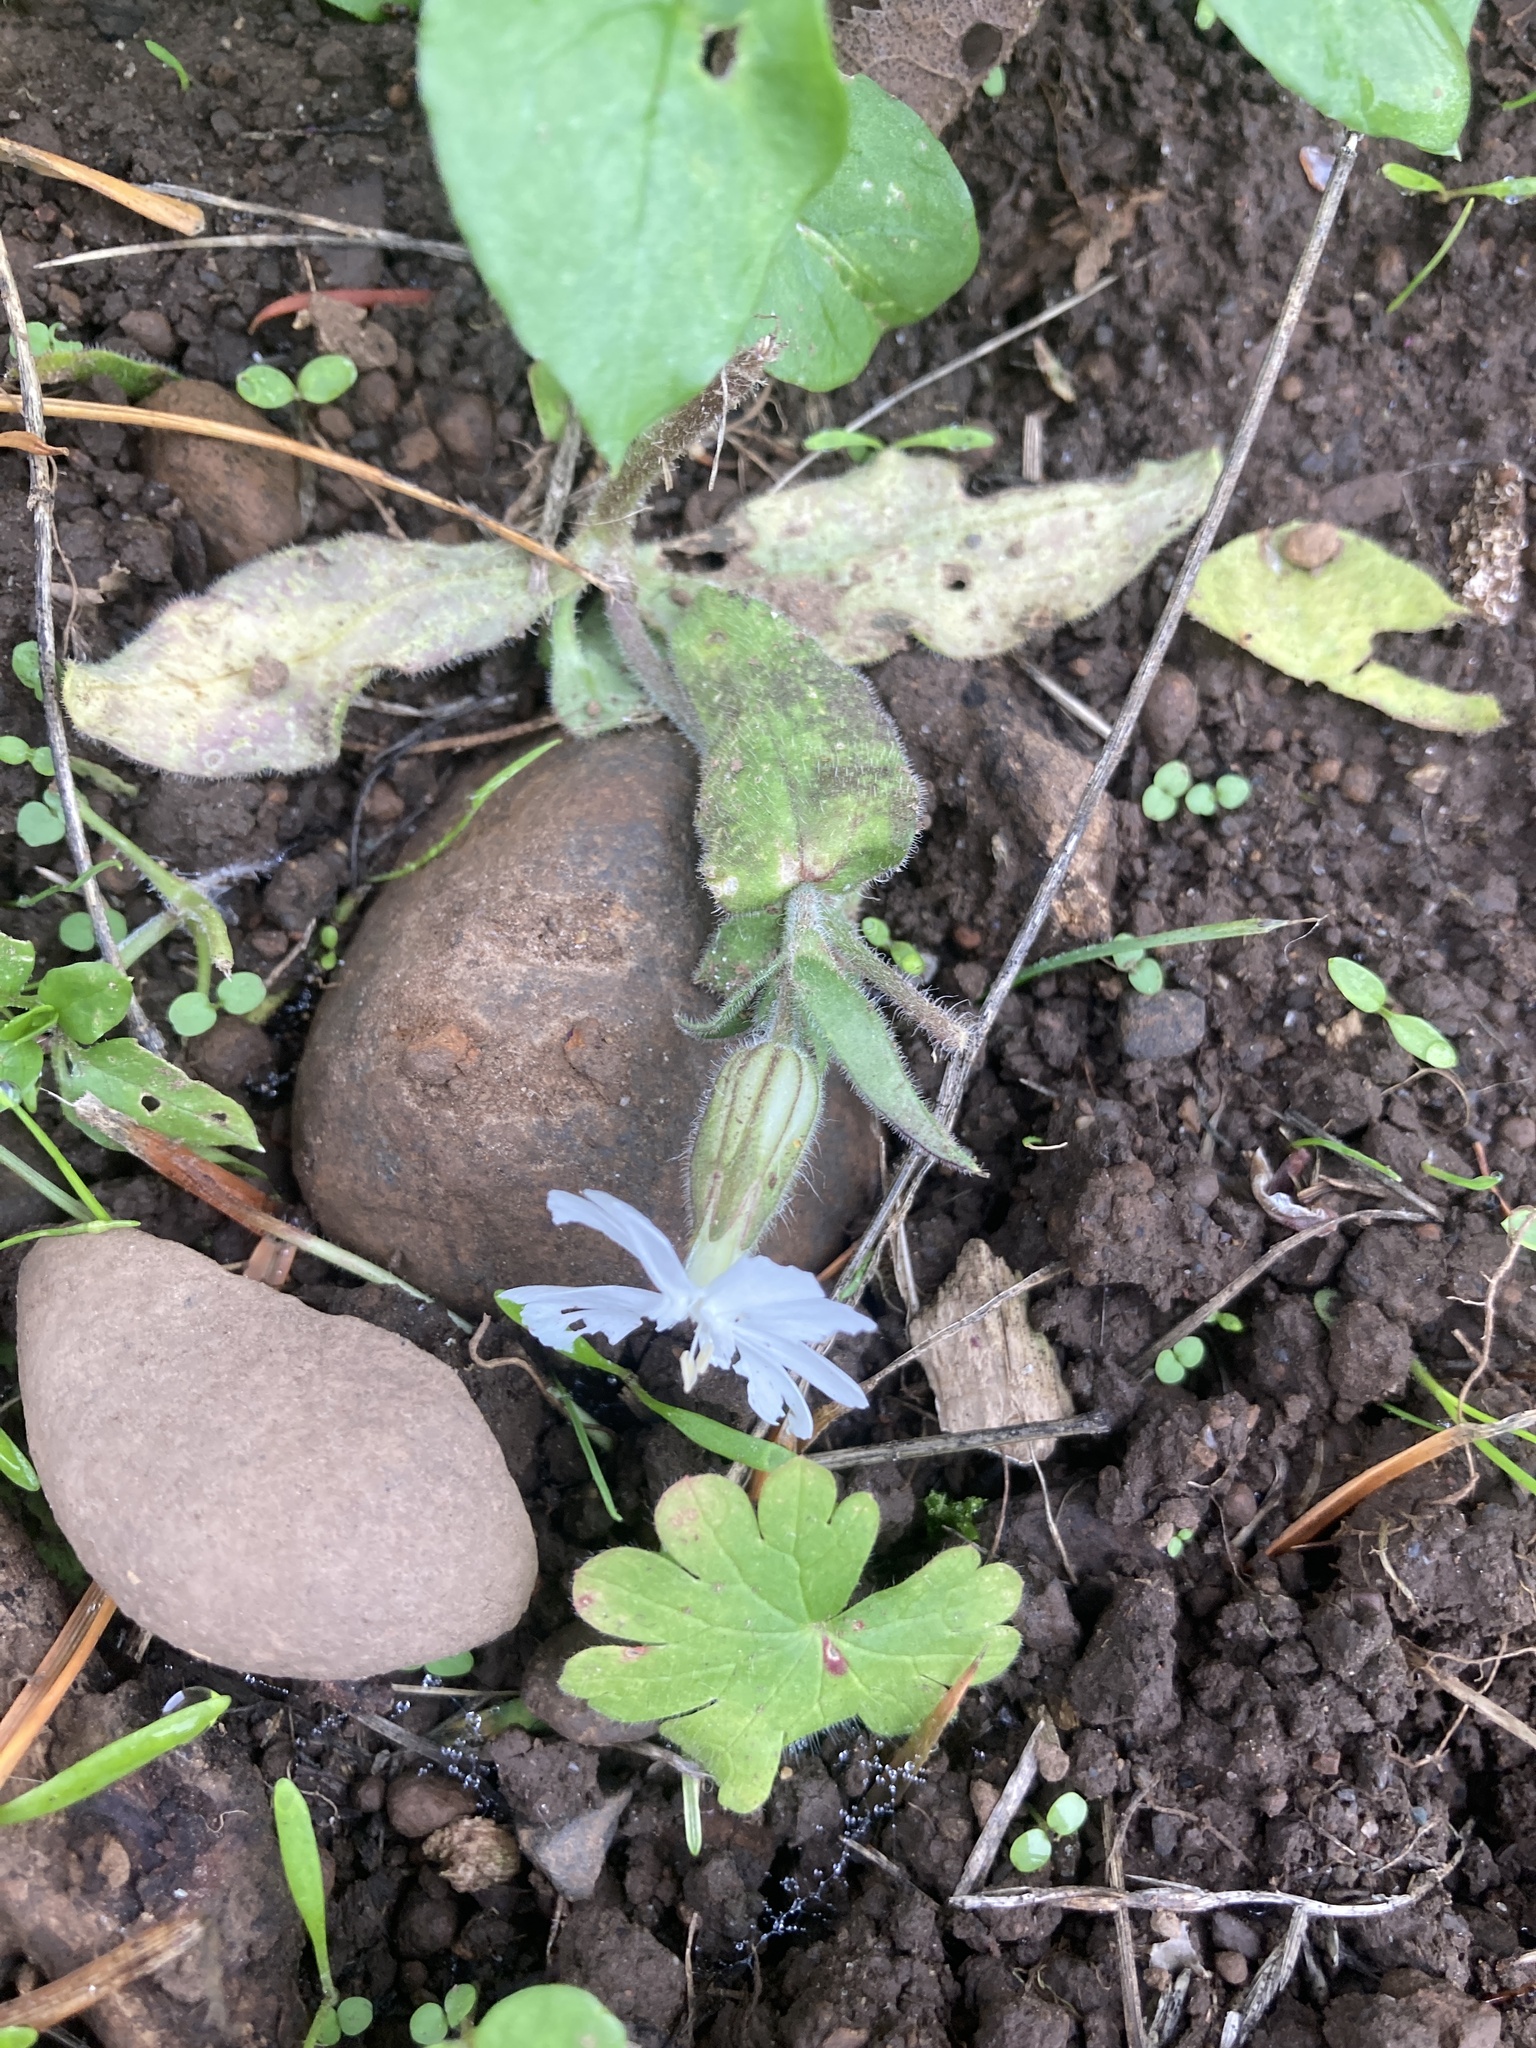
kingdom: Plantae
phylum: Tracheophyta
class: Magnoliopsida
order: Caryophyllales
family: Caryophyllaceae
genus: Silene
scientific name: Silene latifolia
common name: White campion
